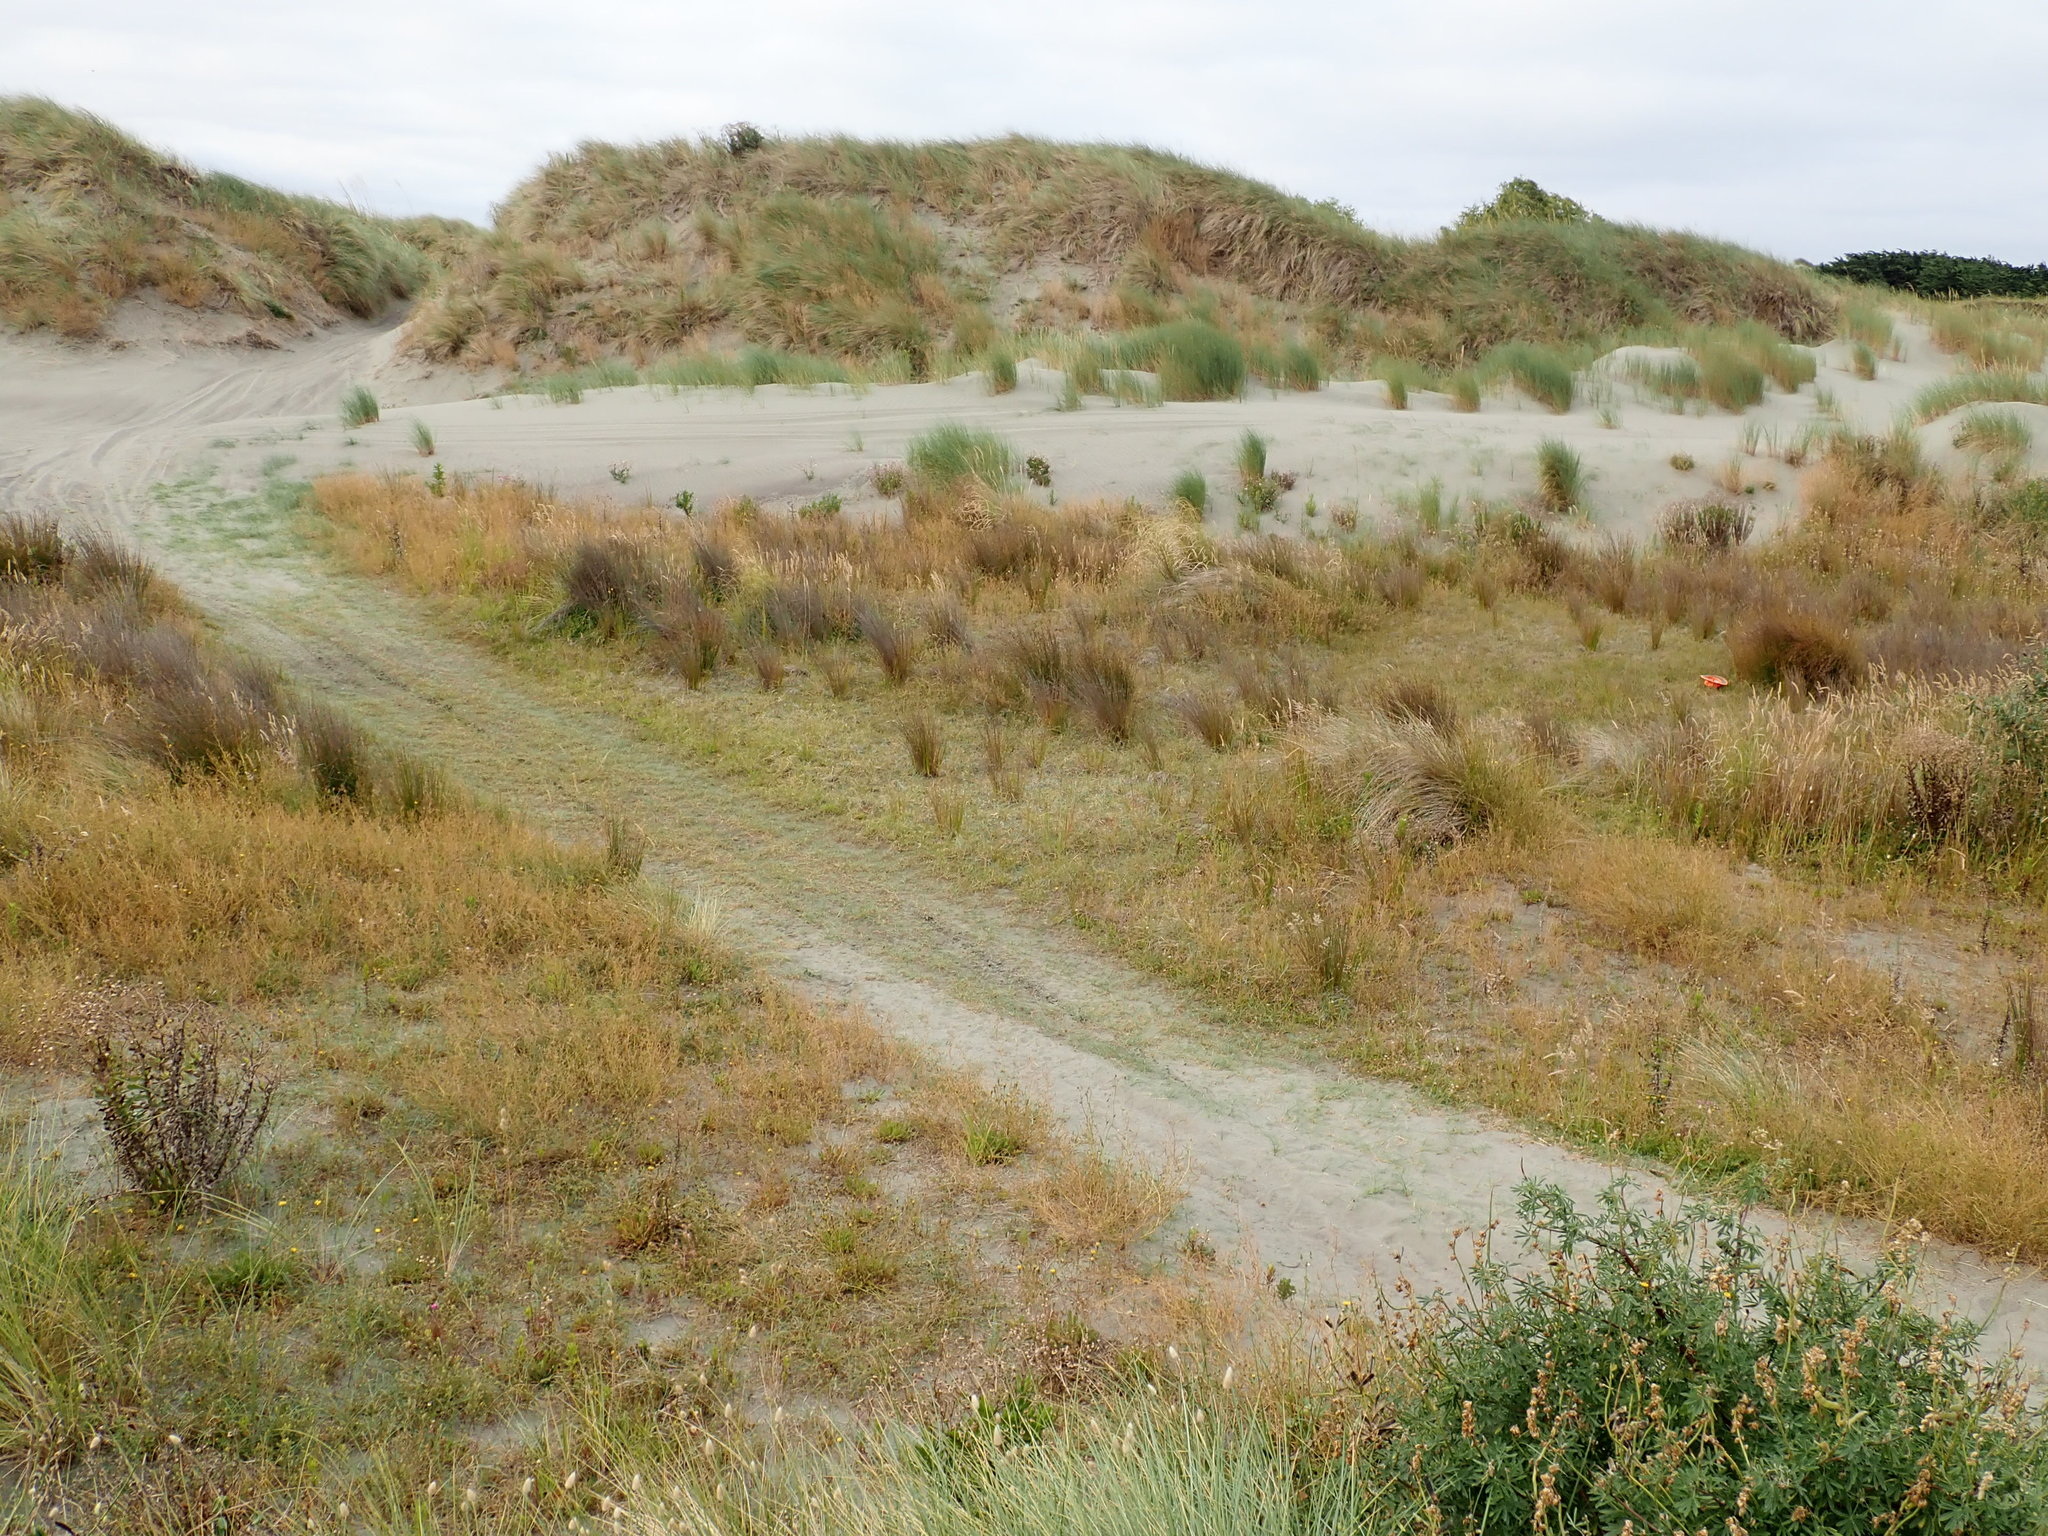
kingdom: Plantae
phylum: Tracheophyta
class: Liliopsida
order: Alismatales
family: Juncaginaceae
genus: Triglochin
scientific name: Triglochin striata
